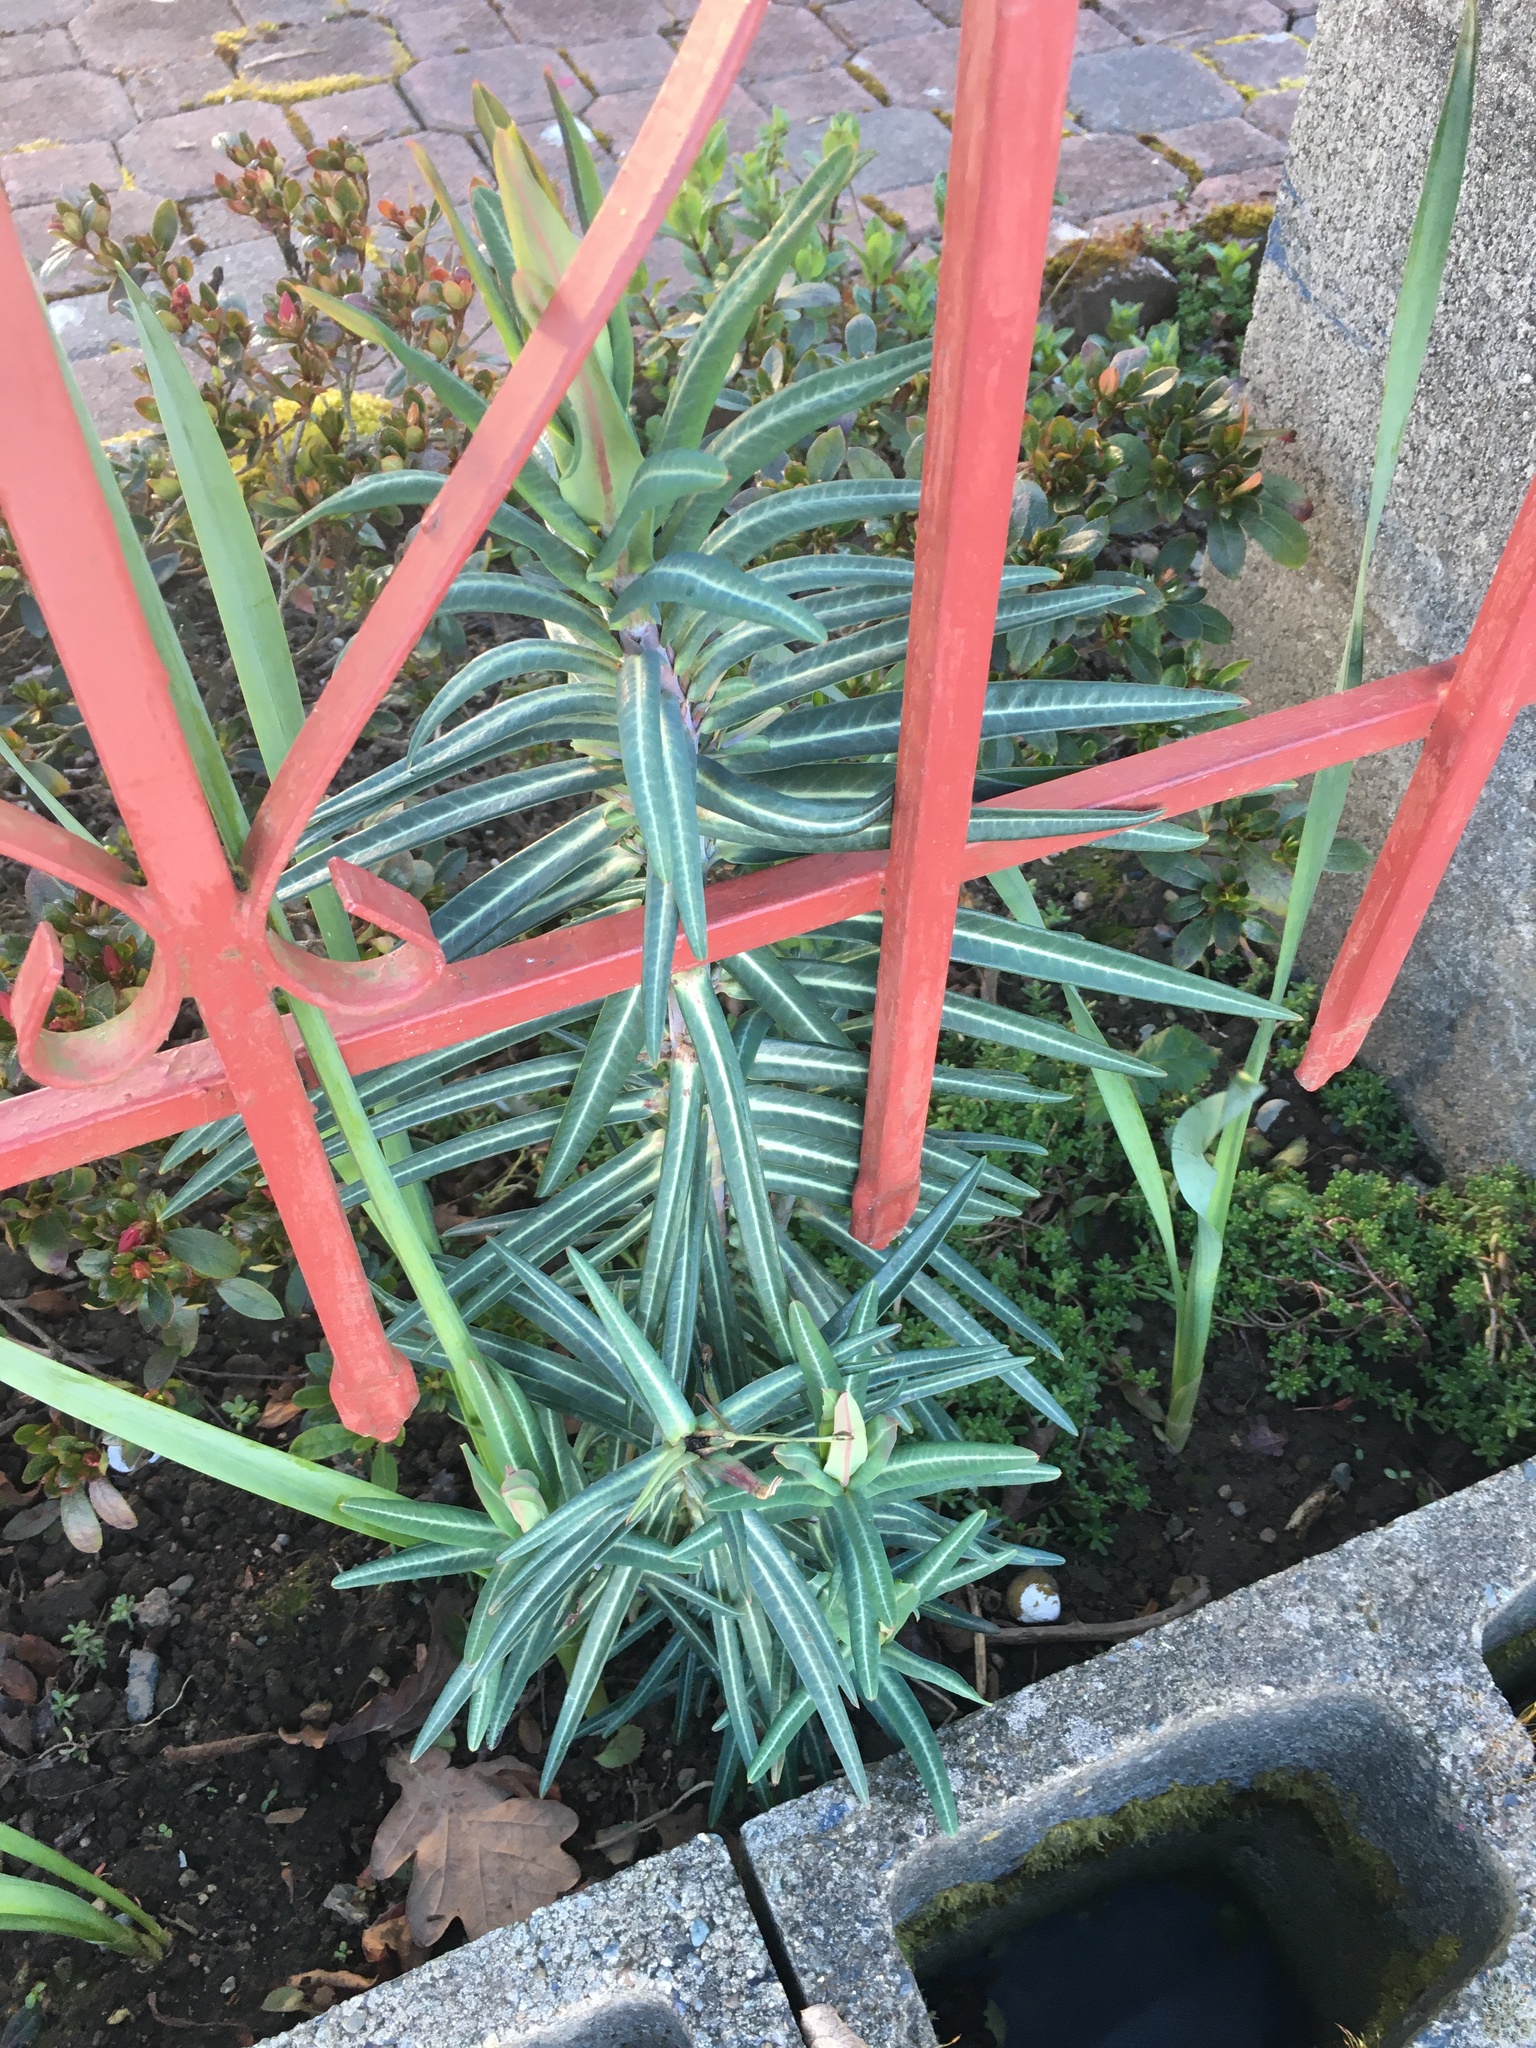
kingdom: Plantae
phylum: Tracheophyta
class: Magnoliopsida
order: Malpighiales
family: Euphorbiaceae
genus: Euphorbia
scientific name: Euphorbia lathyris
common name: Caper spurge
